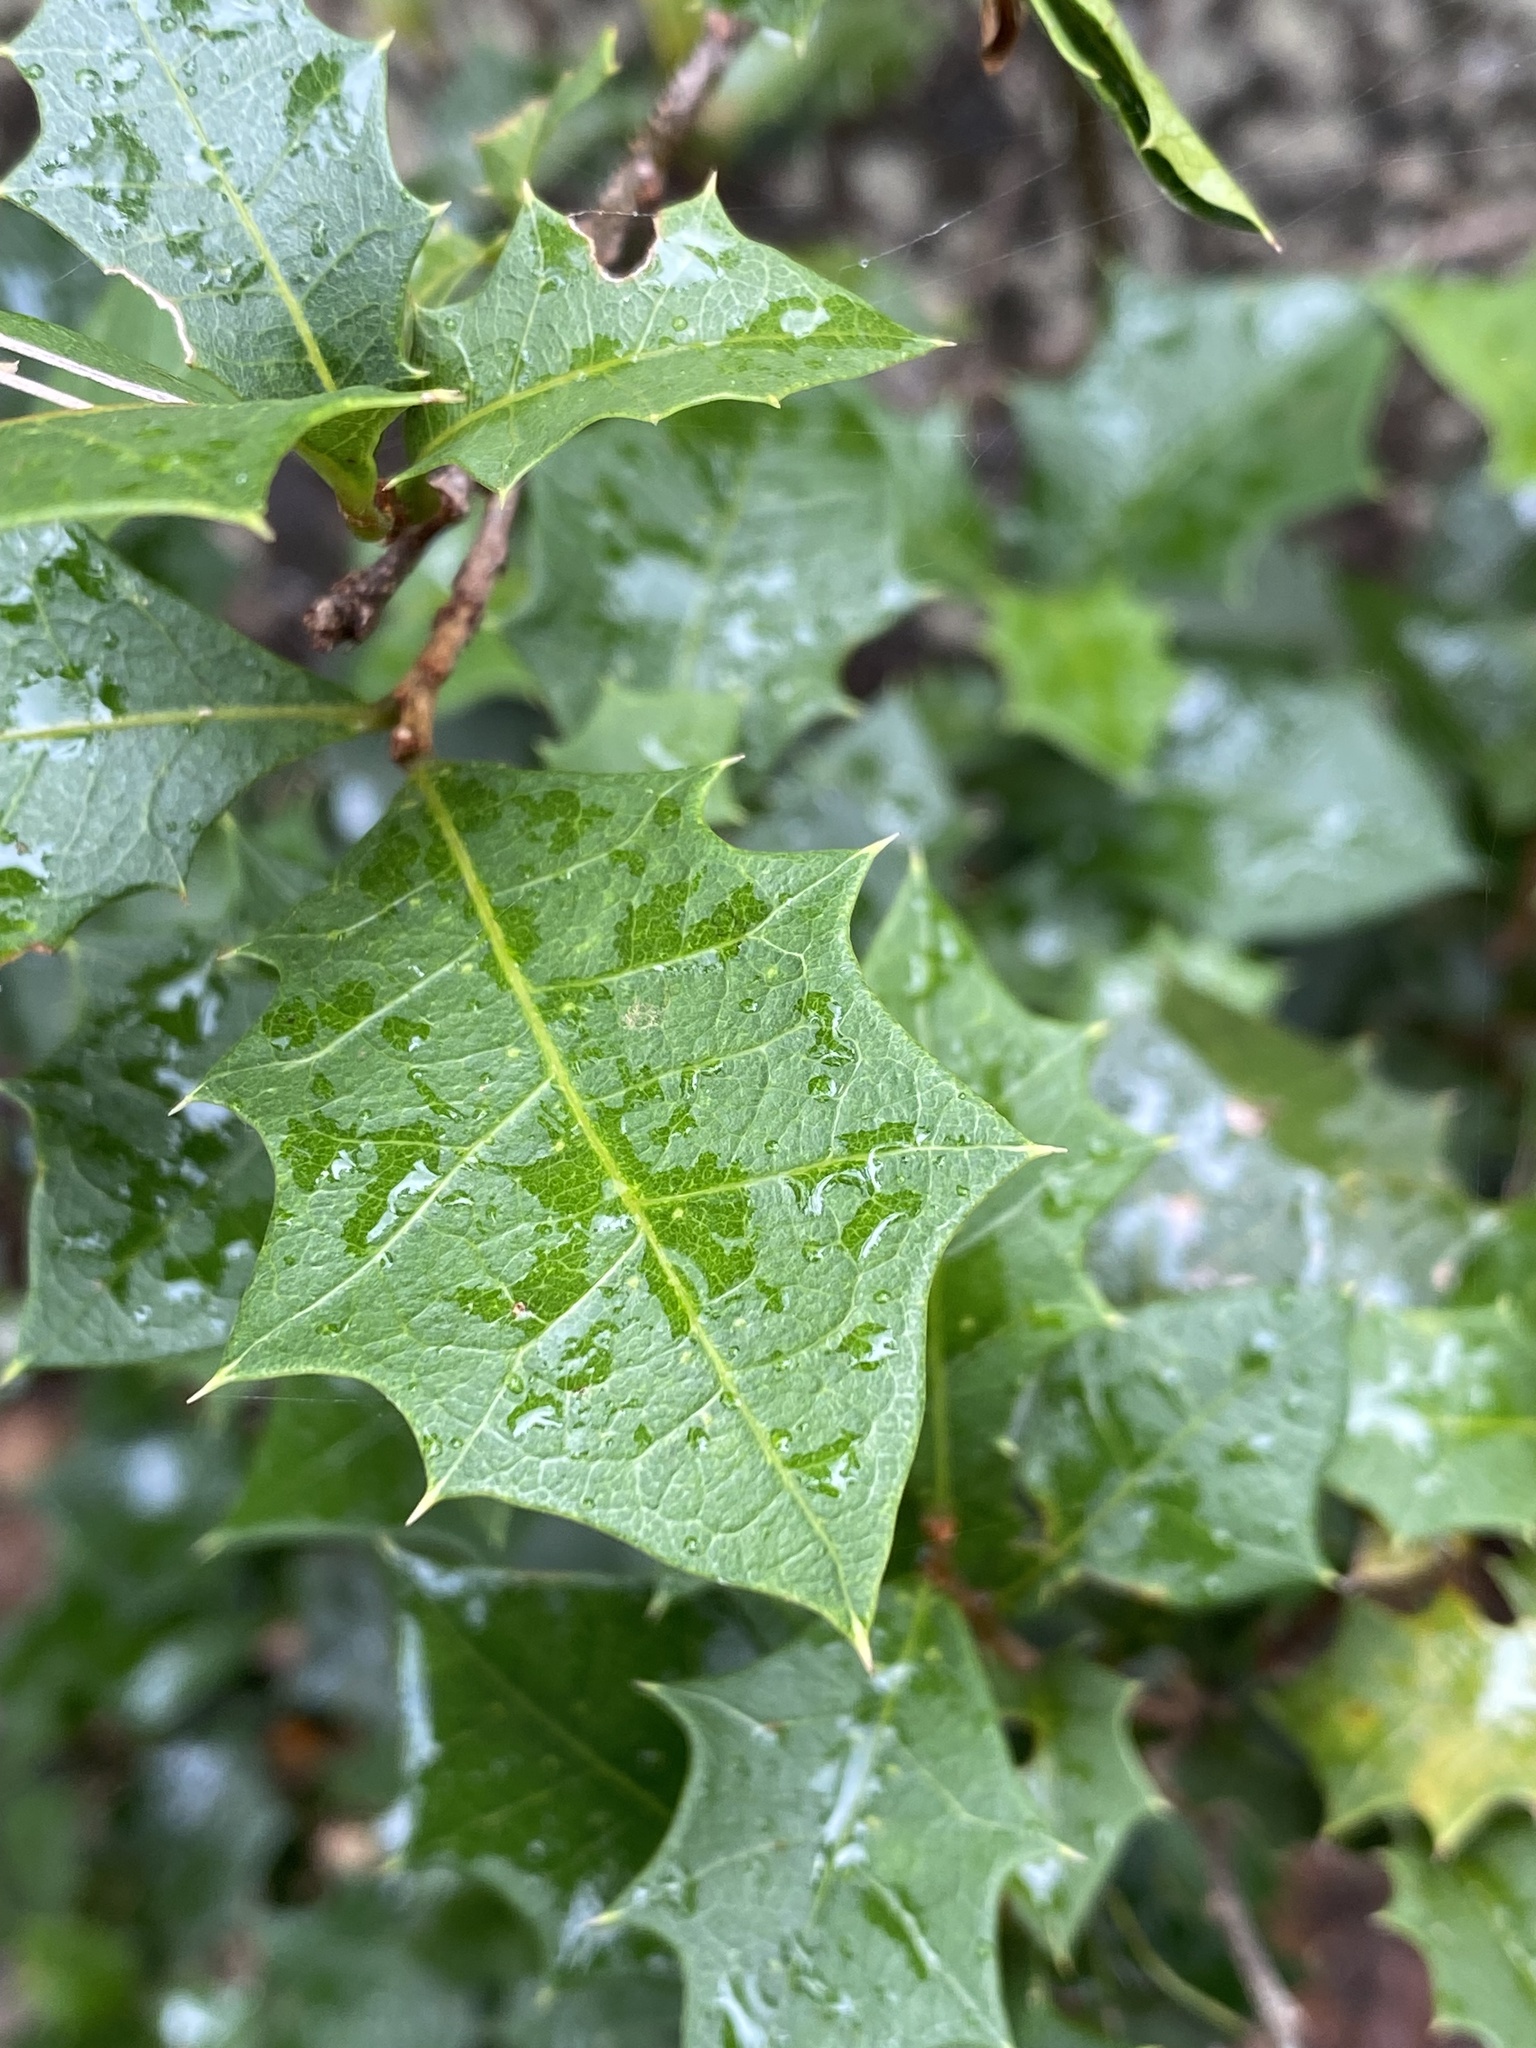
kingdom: Plantae
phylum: Tracheophyta
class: Magnoliopsida
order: Malpighiales
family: Euphorbiaceae
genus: Alchornea
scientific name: Alchornea ilicifolia
